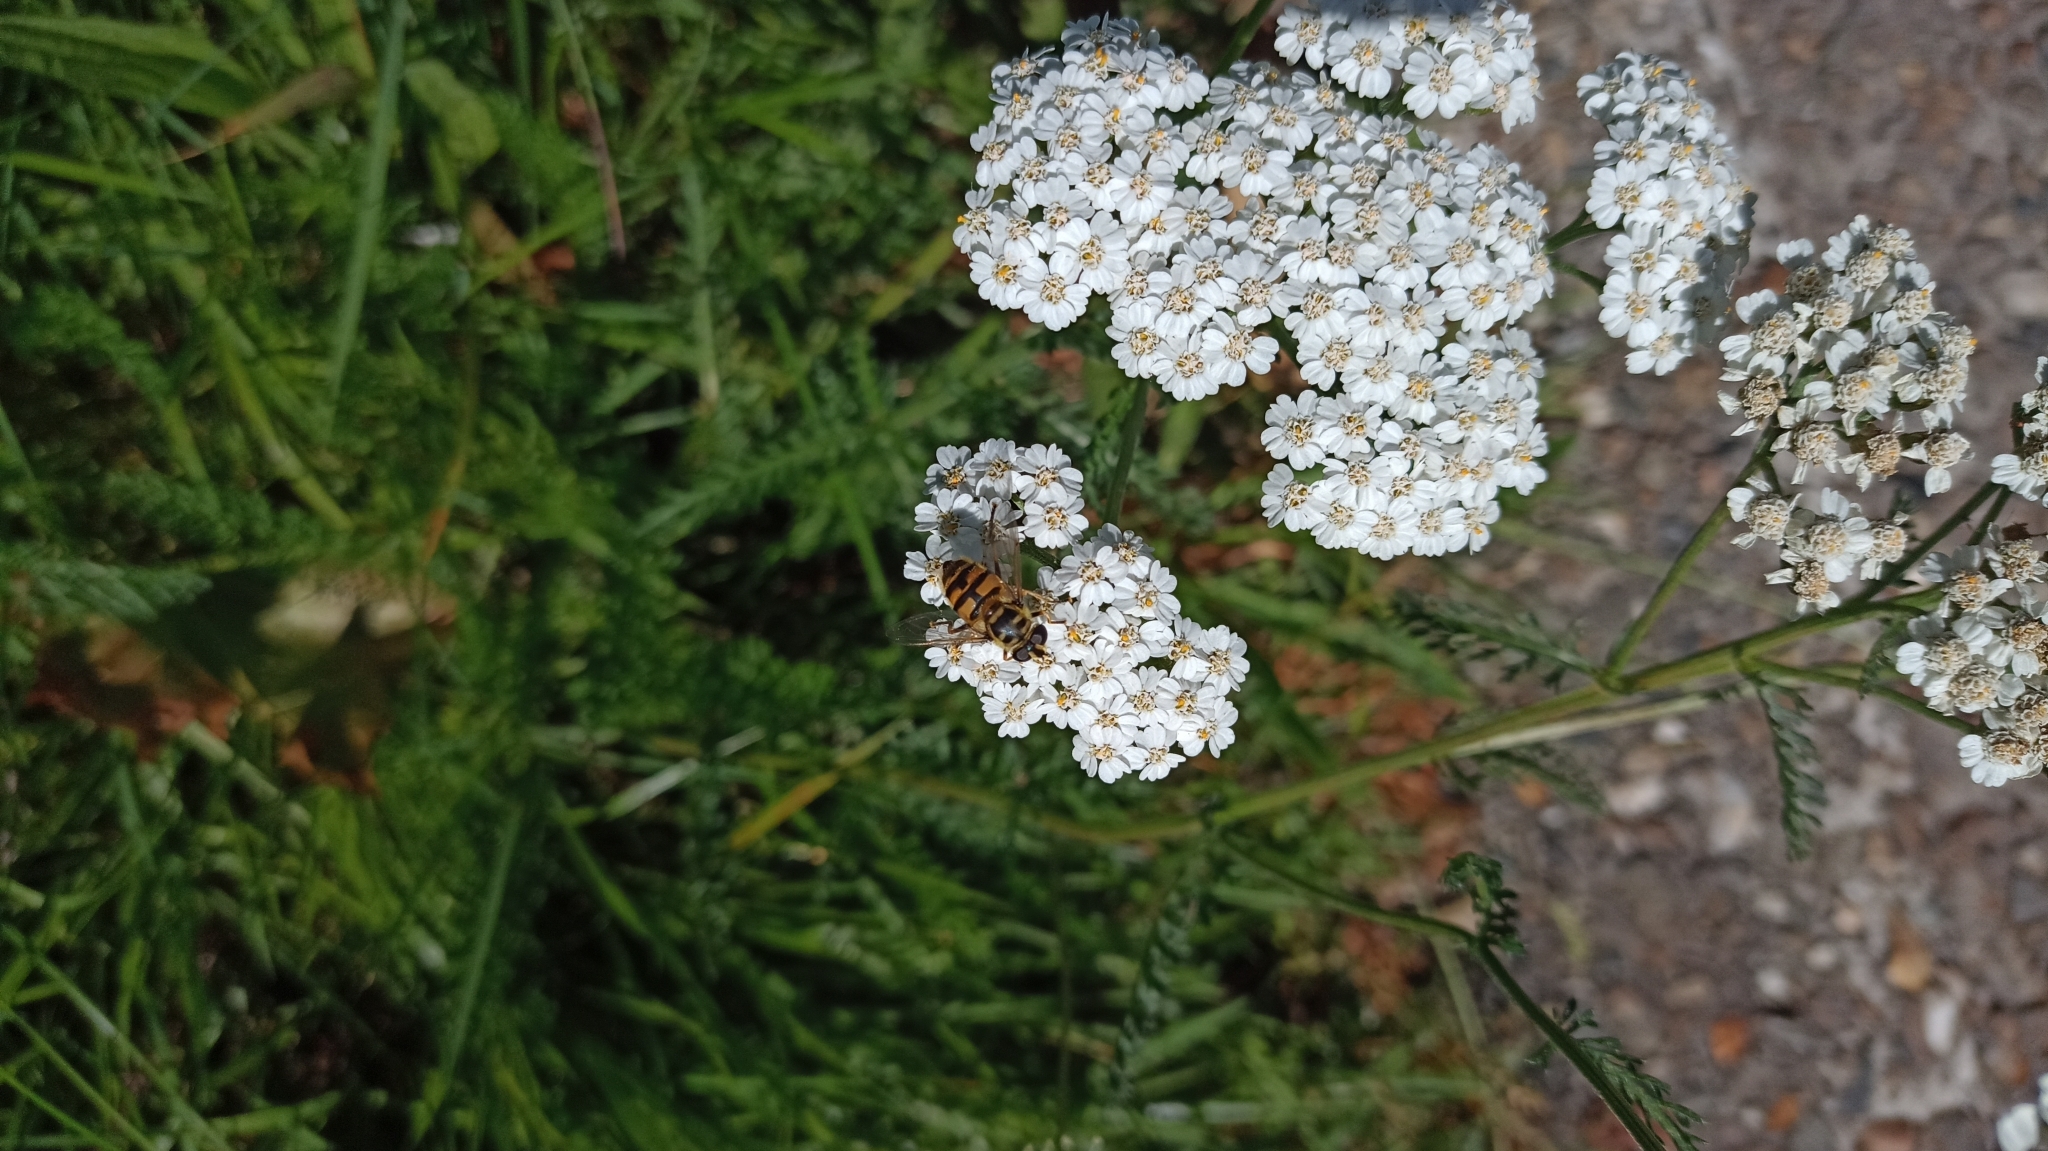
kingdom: Animalia
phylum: Arthropoda
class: Insecta
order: Diptera
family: Syrphidae
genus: Myathropa
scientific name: Myathropa florea
